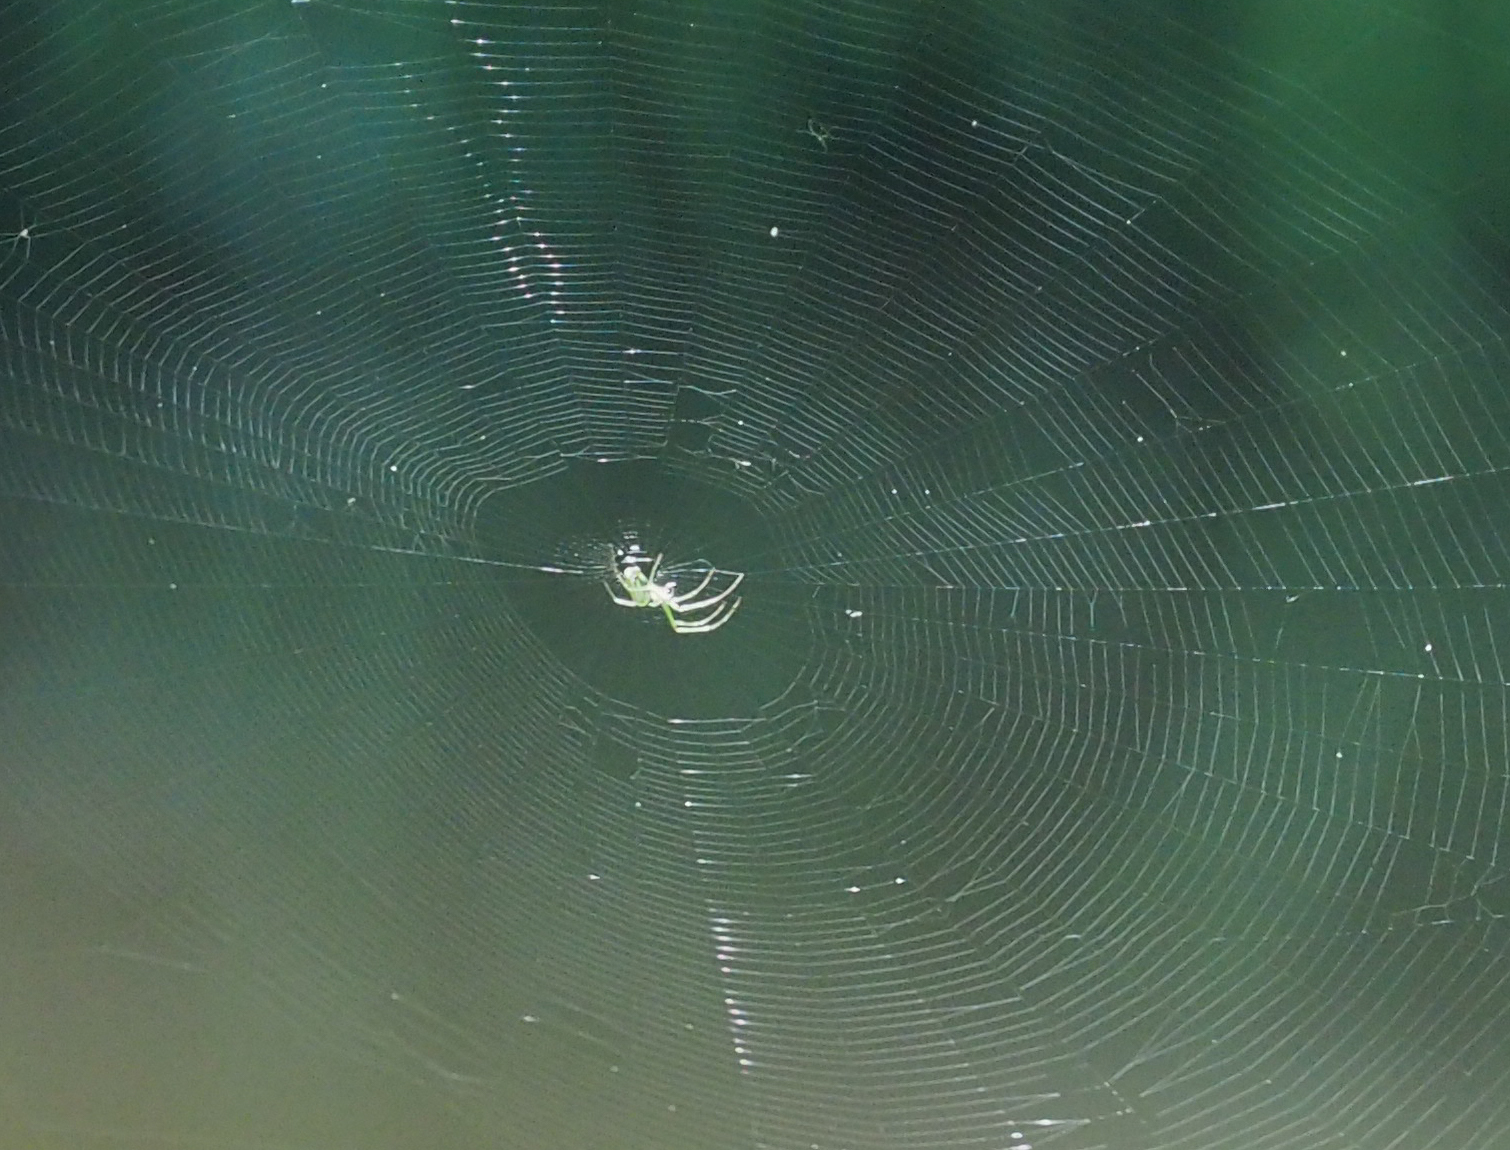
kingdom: Animalia
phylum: Arthropoda
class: Arachnida
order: Araneae
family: Tetragnathidae
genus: Leucauge
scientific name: Leucauge venusta
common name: Longjawed orb weavers
